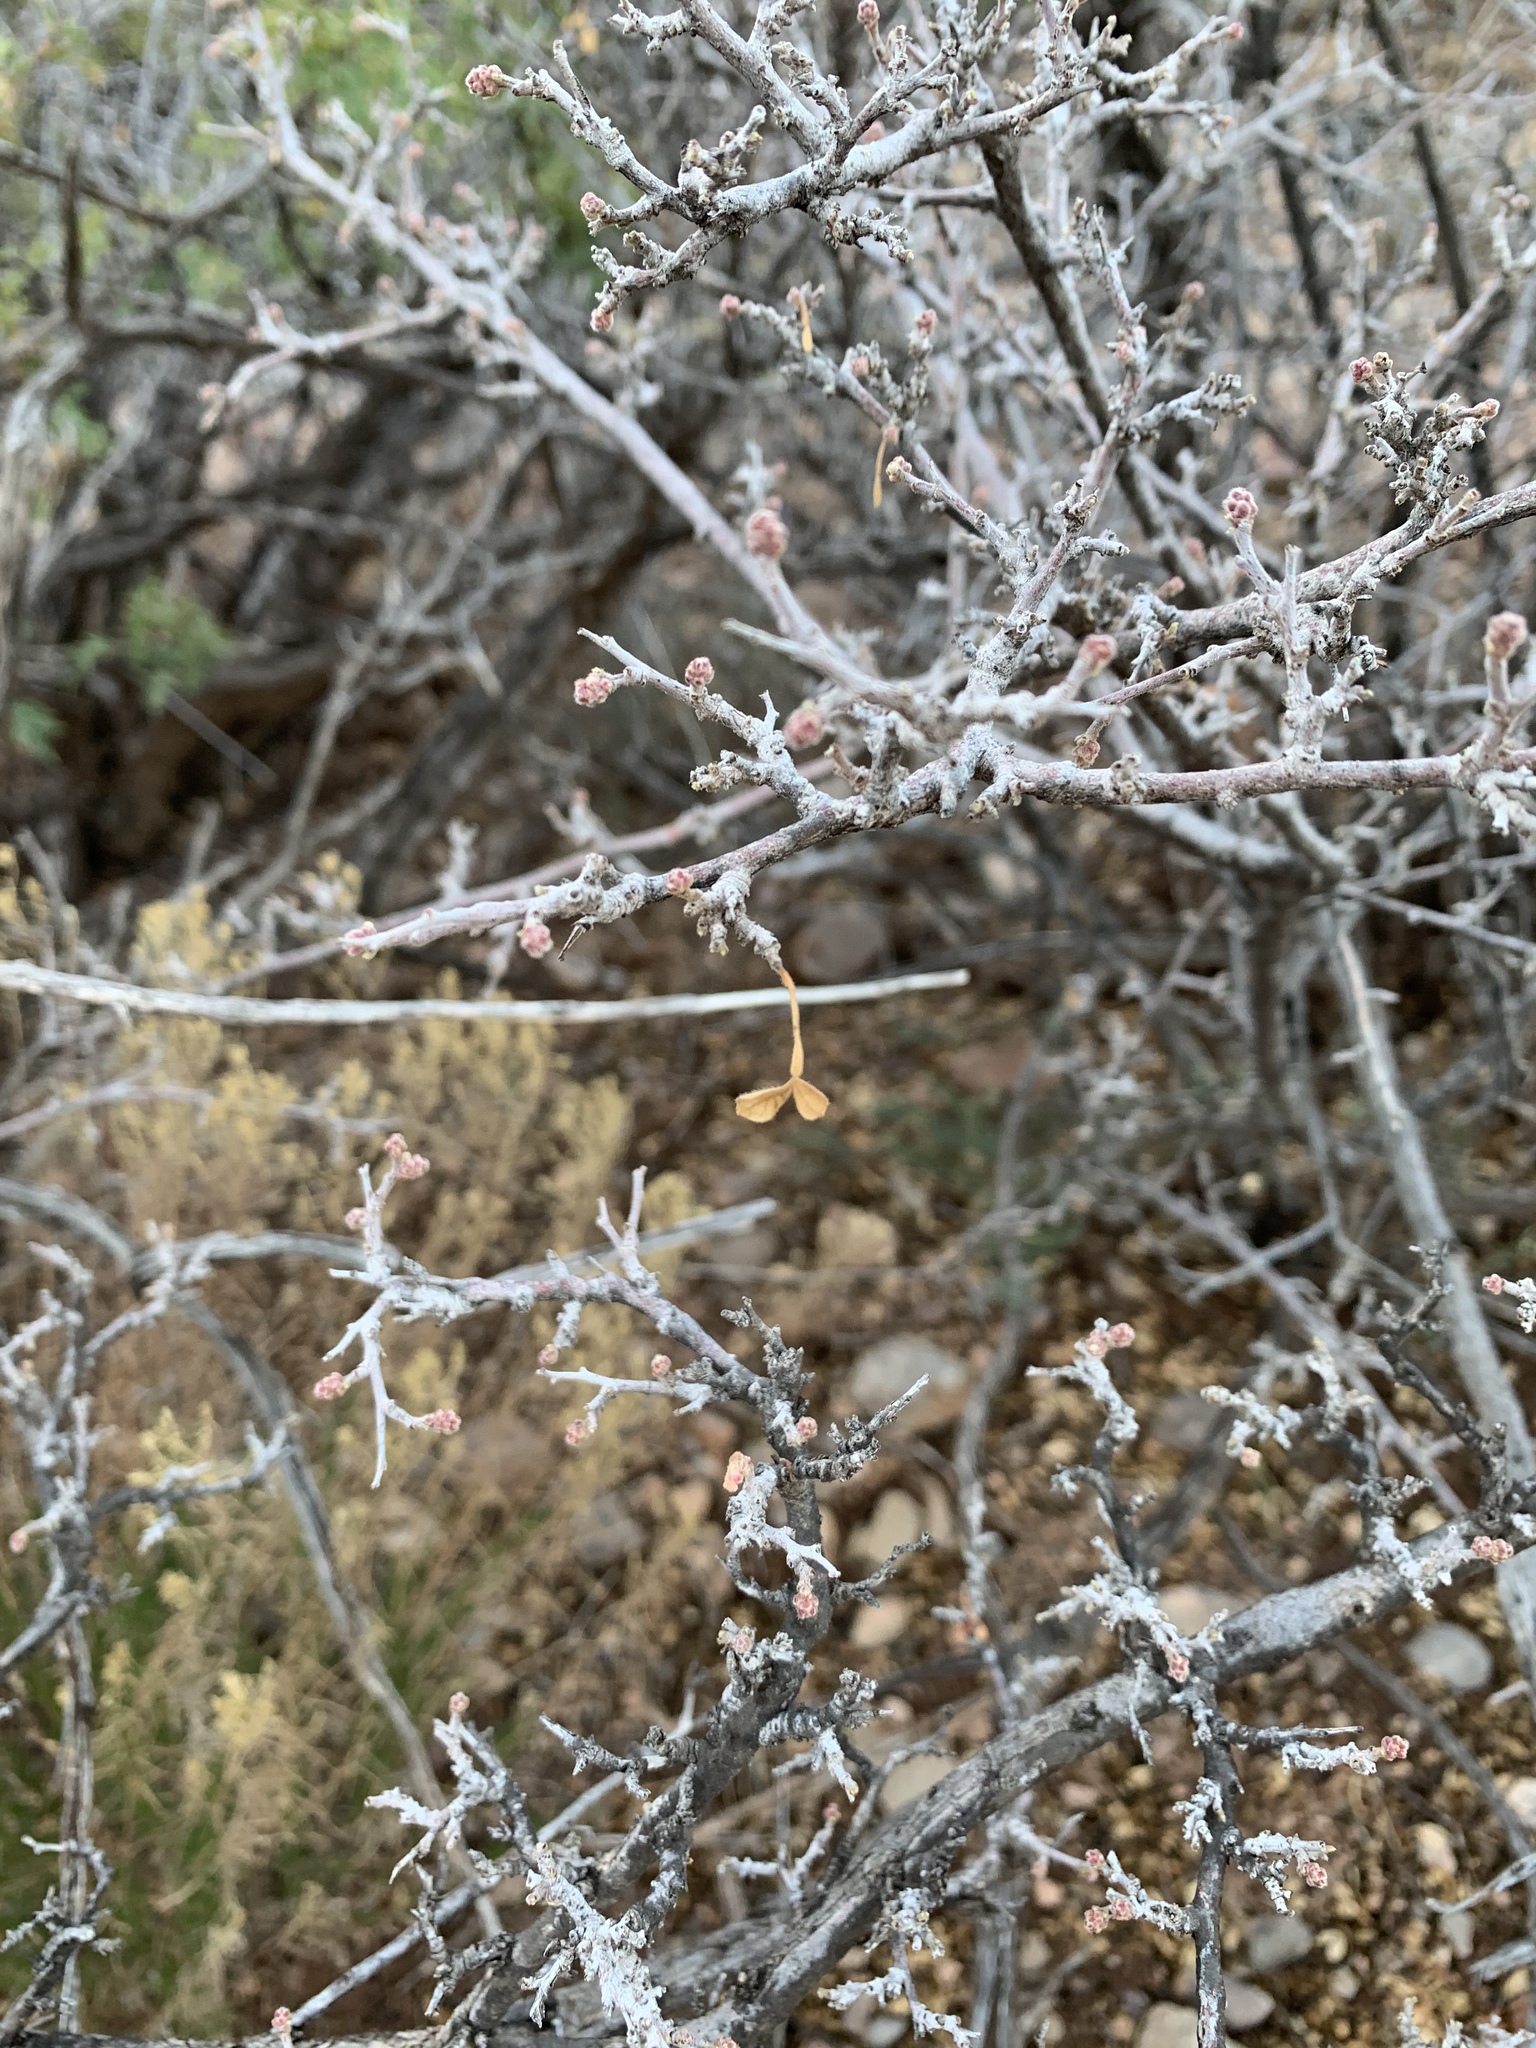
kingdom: Plantae
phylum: Tracheophyta
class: Magnoliopsida
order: Sapindales
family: Anacardiaceae
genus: Rhus
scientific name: Rhus microphylla
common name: Desert sumac
